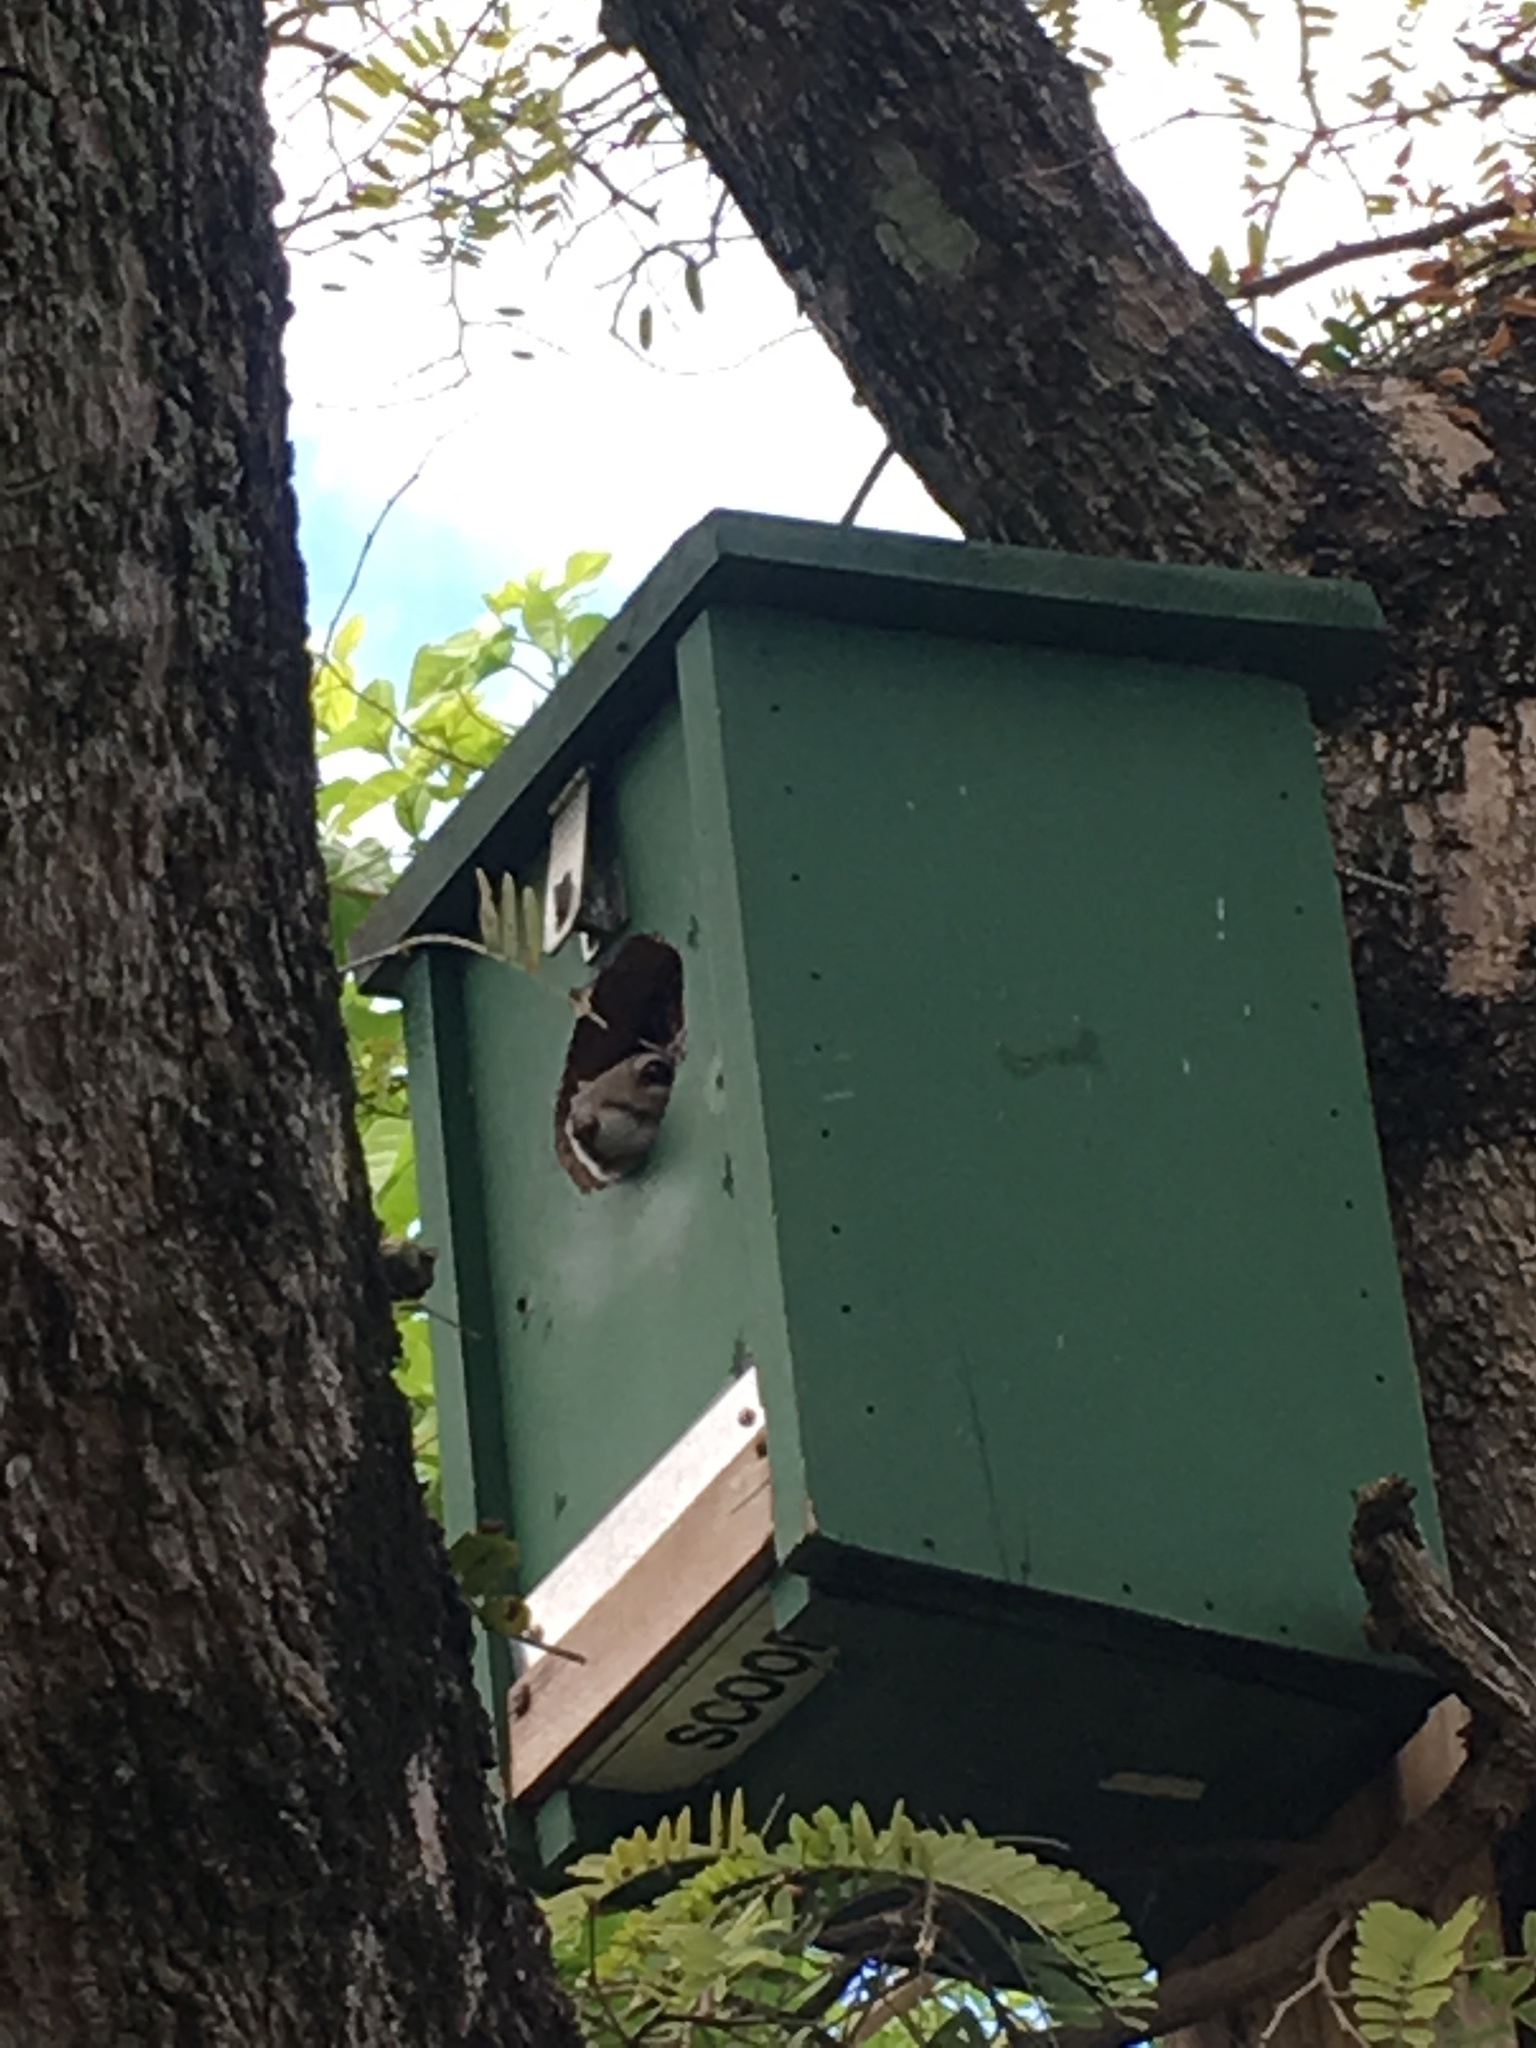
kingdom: Animalia
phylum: Chordata
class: Mammalia
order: Rodentia
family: Sciuridae
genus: Sciurus
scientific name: Sciurus carolinensis
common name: Eastern gray squirrel
